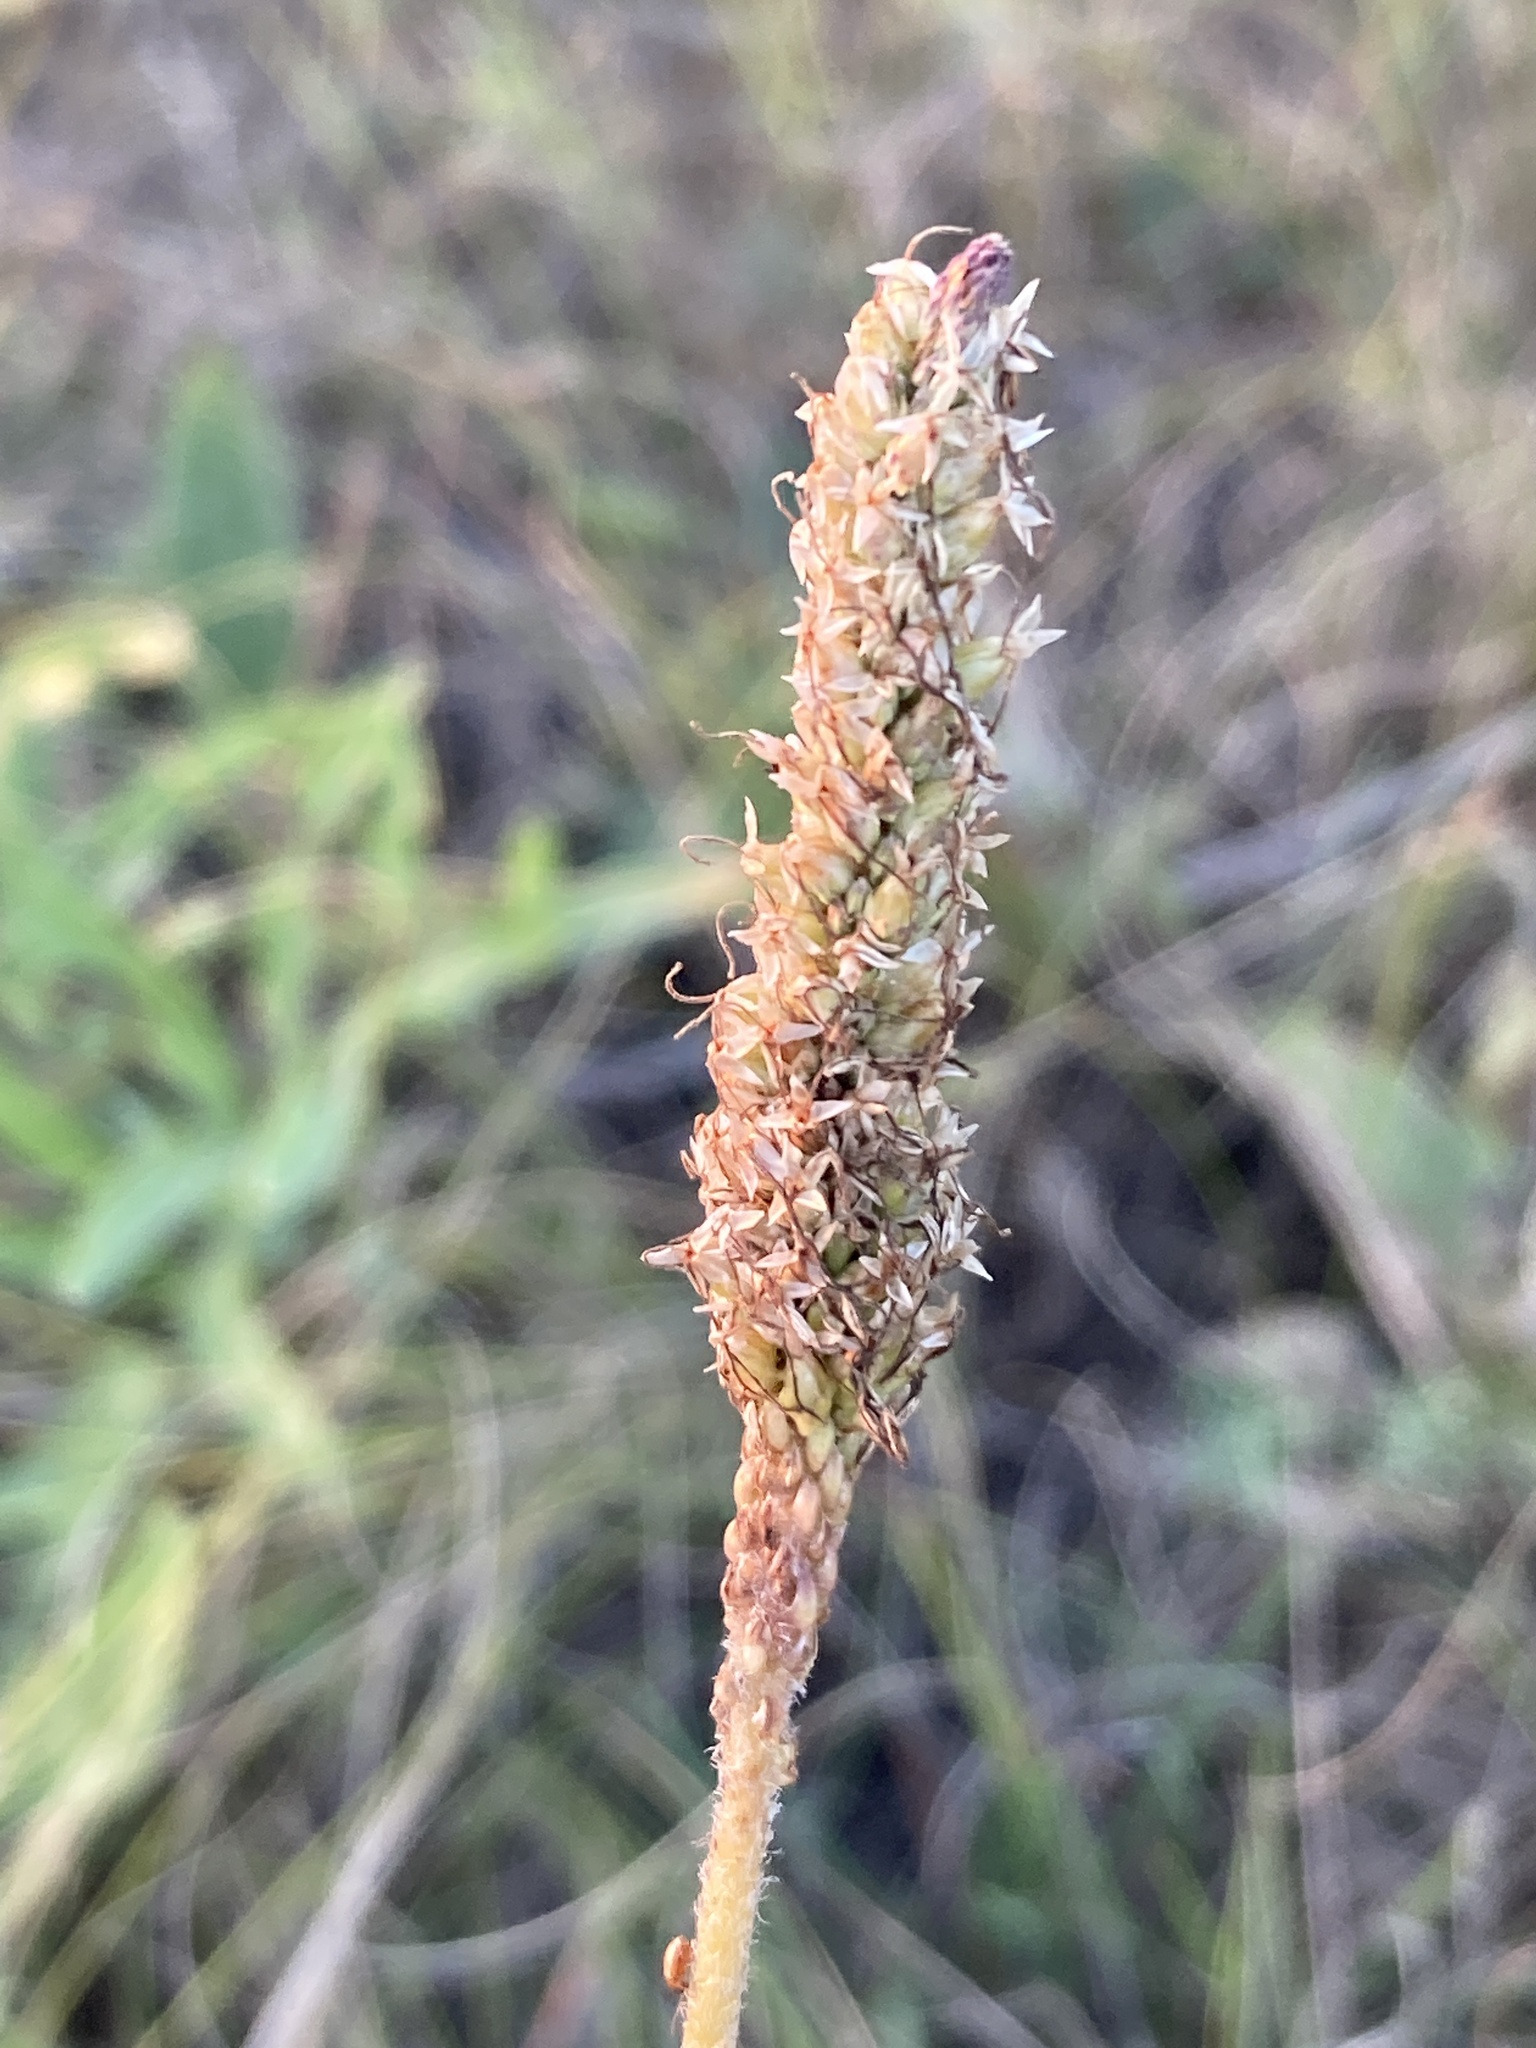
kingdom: Plantae
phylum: Tracheophyta
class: Magnoliopsida
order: Lamiales
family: Plantaginaceae
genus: Plantago
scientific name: Plantago urvillei
